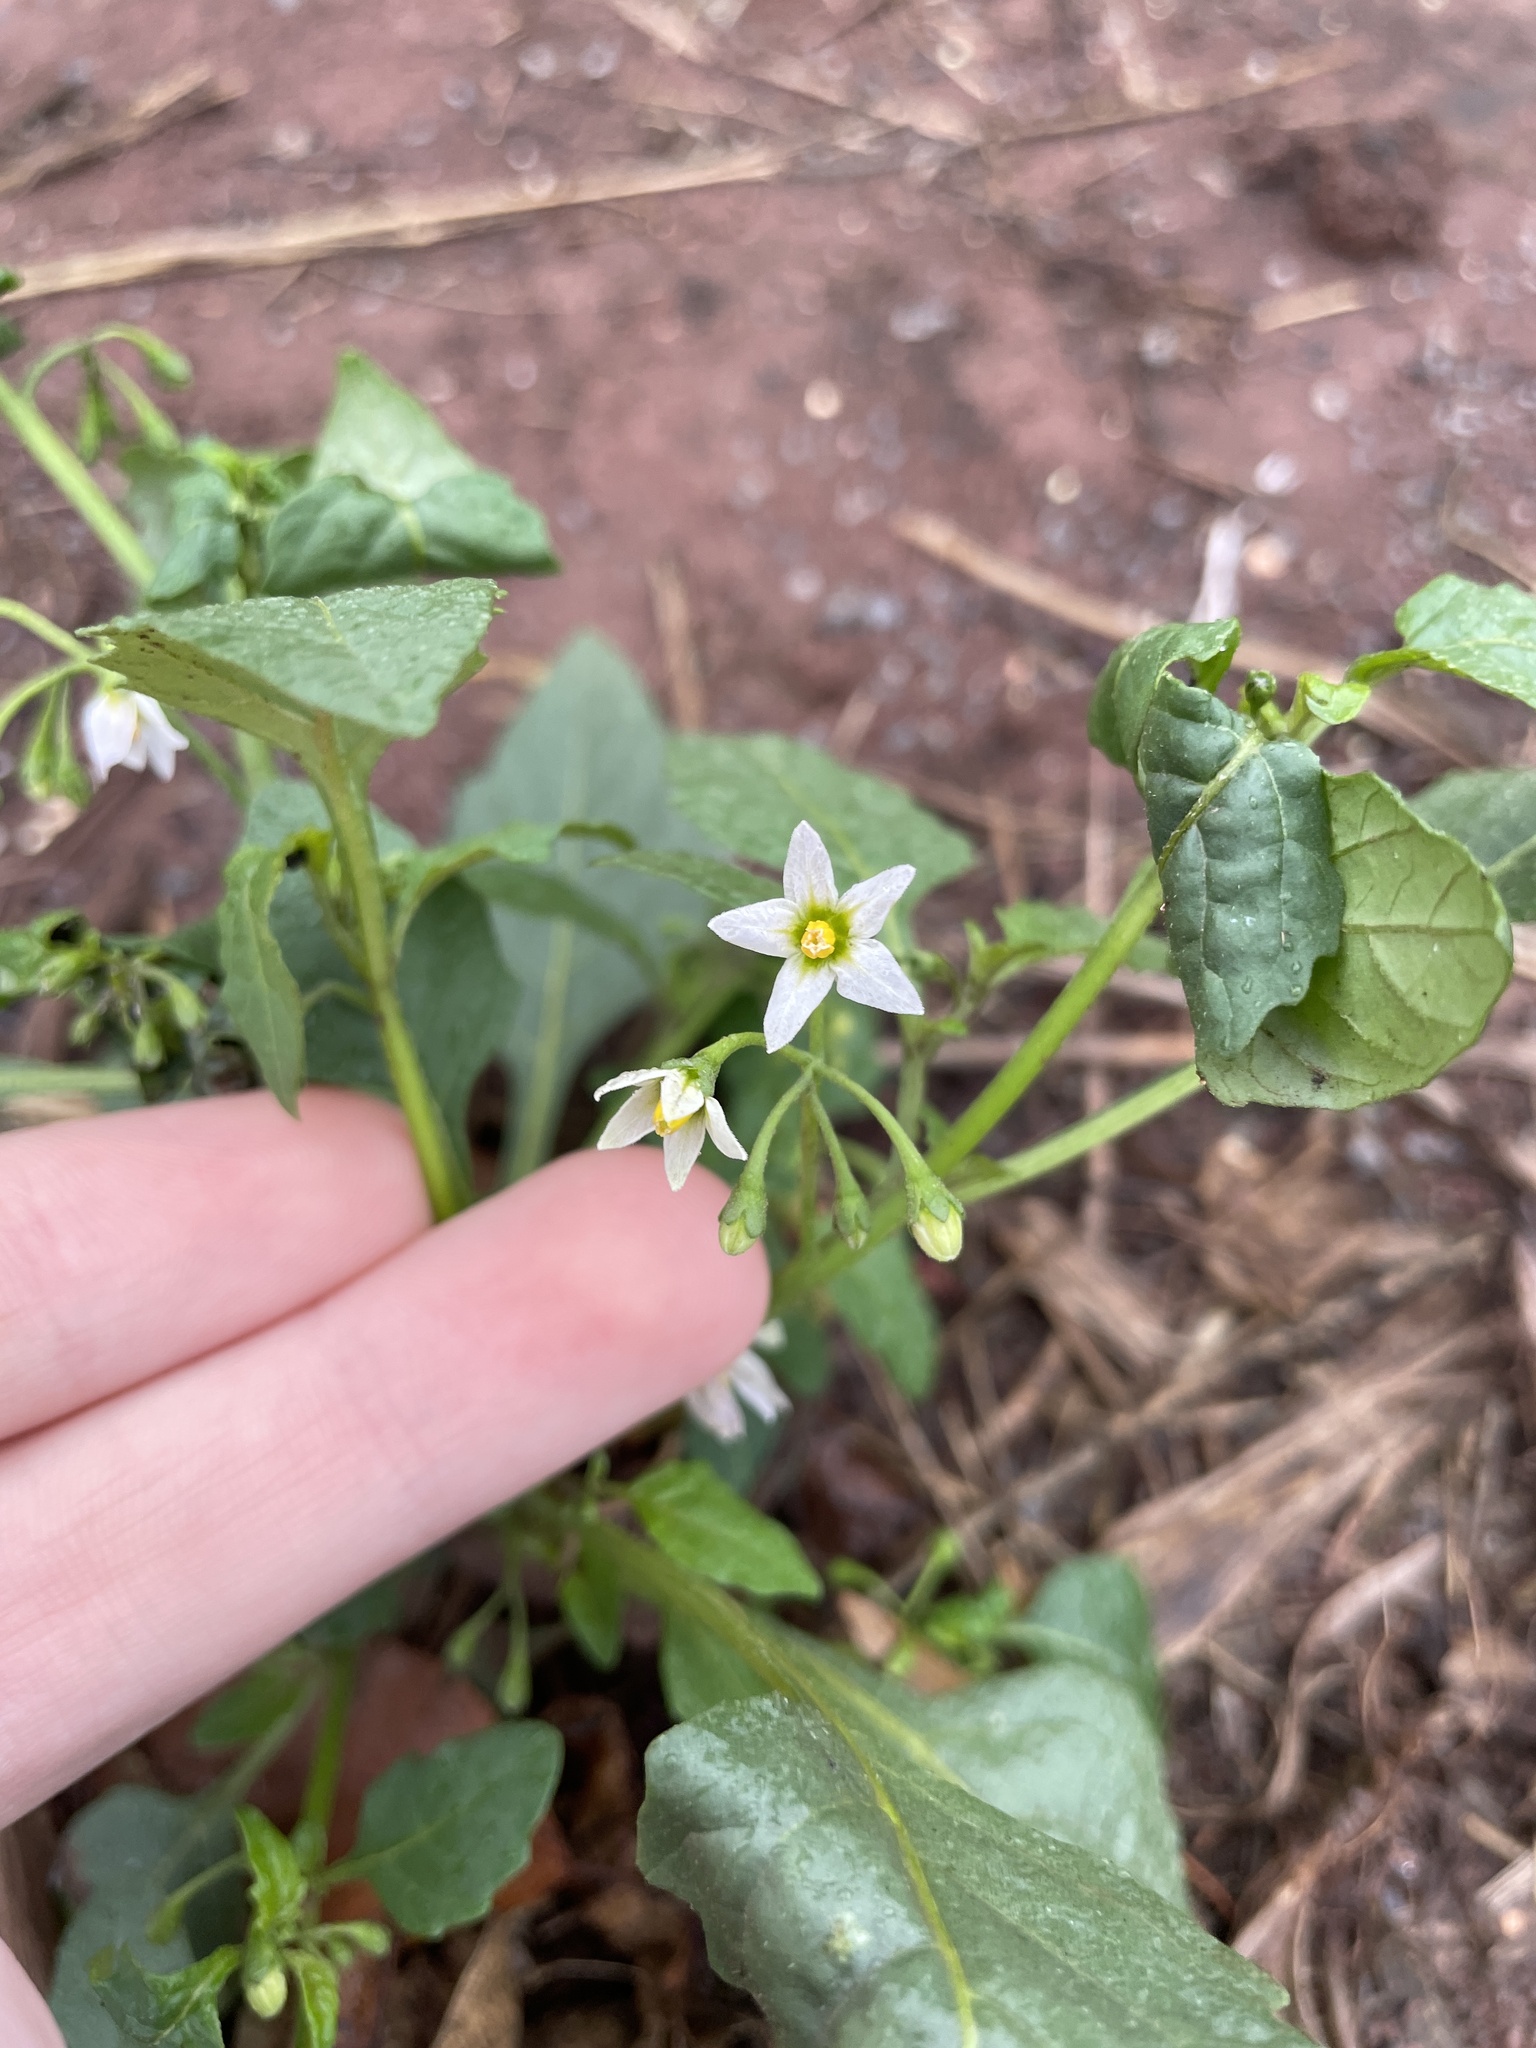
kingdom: Plantae
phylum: Tracheophyta
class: Magnoliopsida
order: Solanales
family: Solanaceae
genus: Solanum
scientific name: Solanum emulans
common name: Eastern black nightshade
